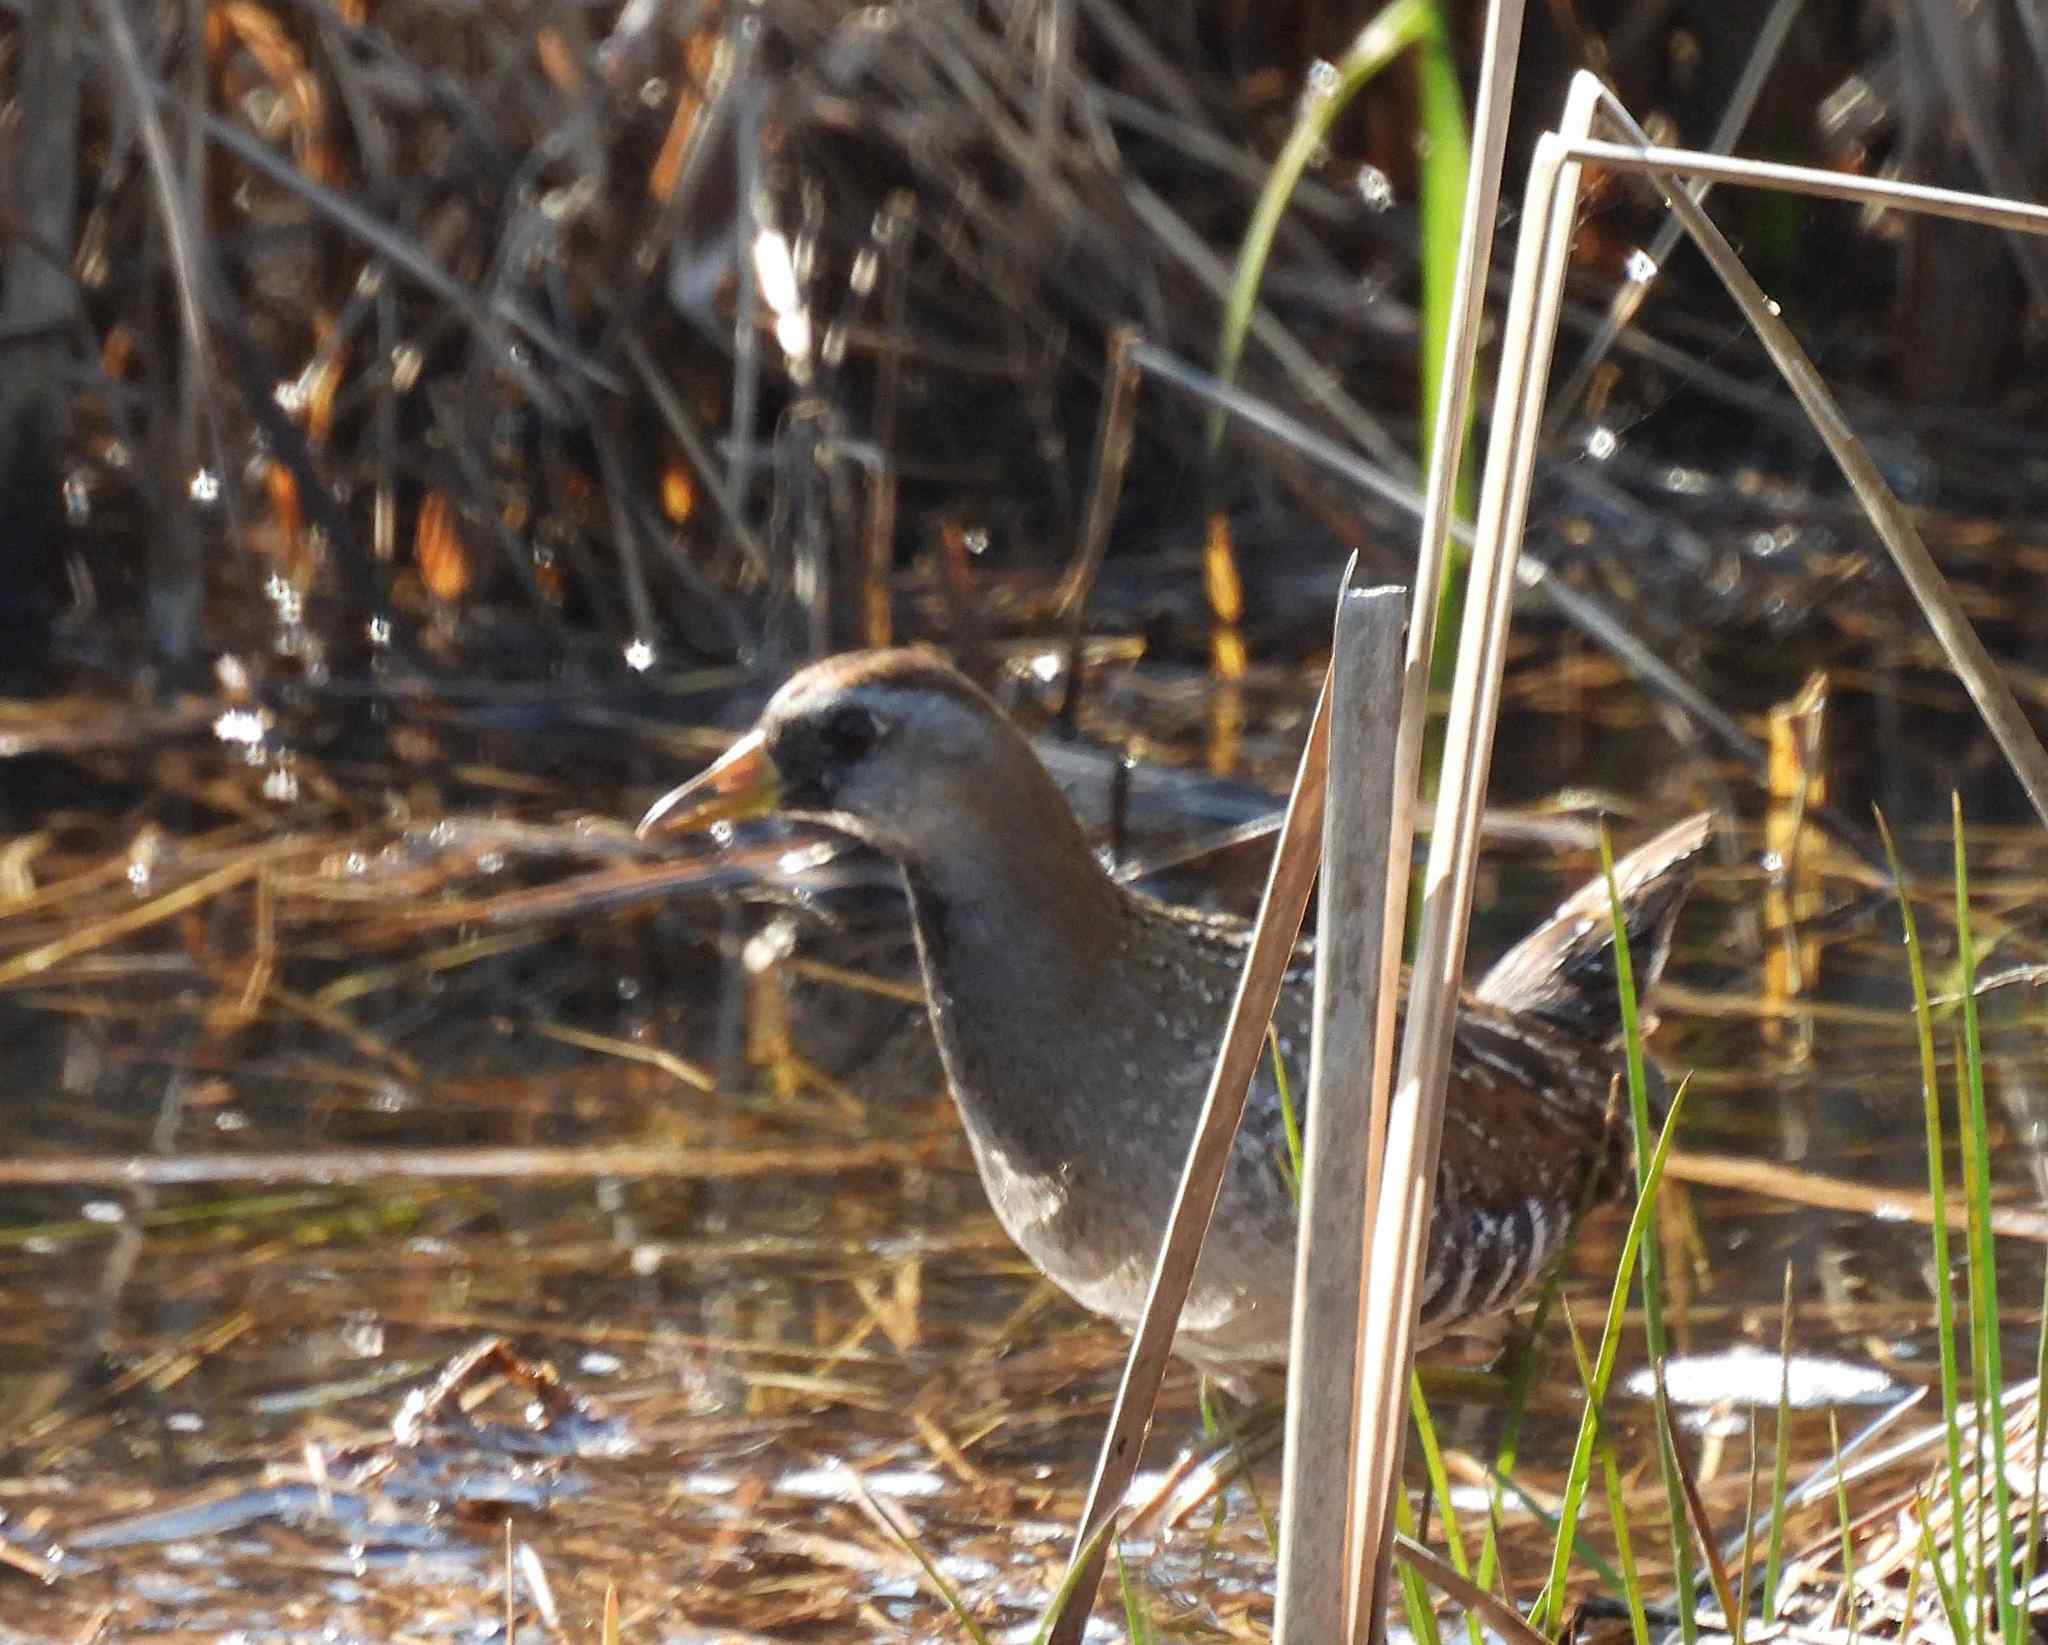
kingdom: Animalia
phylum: Chordata
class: Aves
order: Gruiformes
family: Rallidae
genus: Porzana
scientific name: Porzana carolina
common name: Sora
